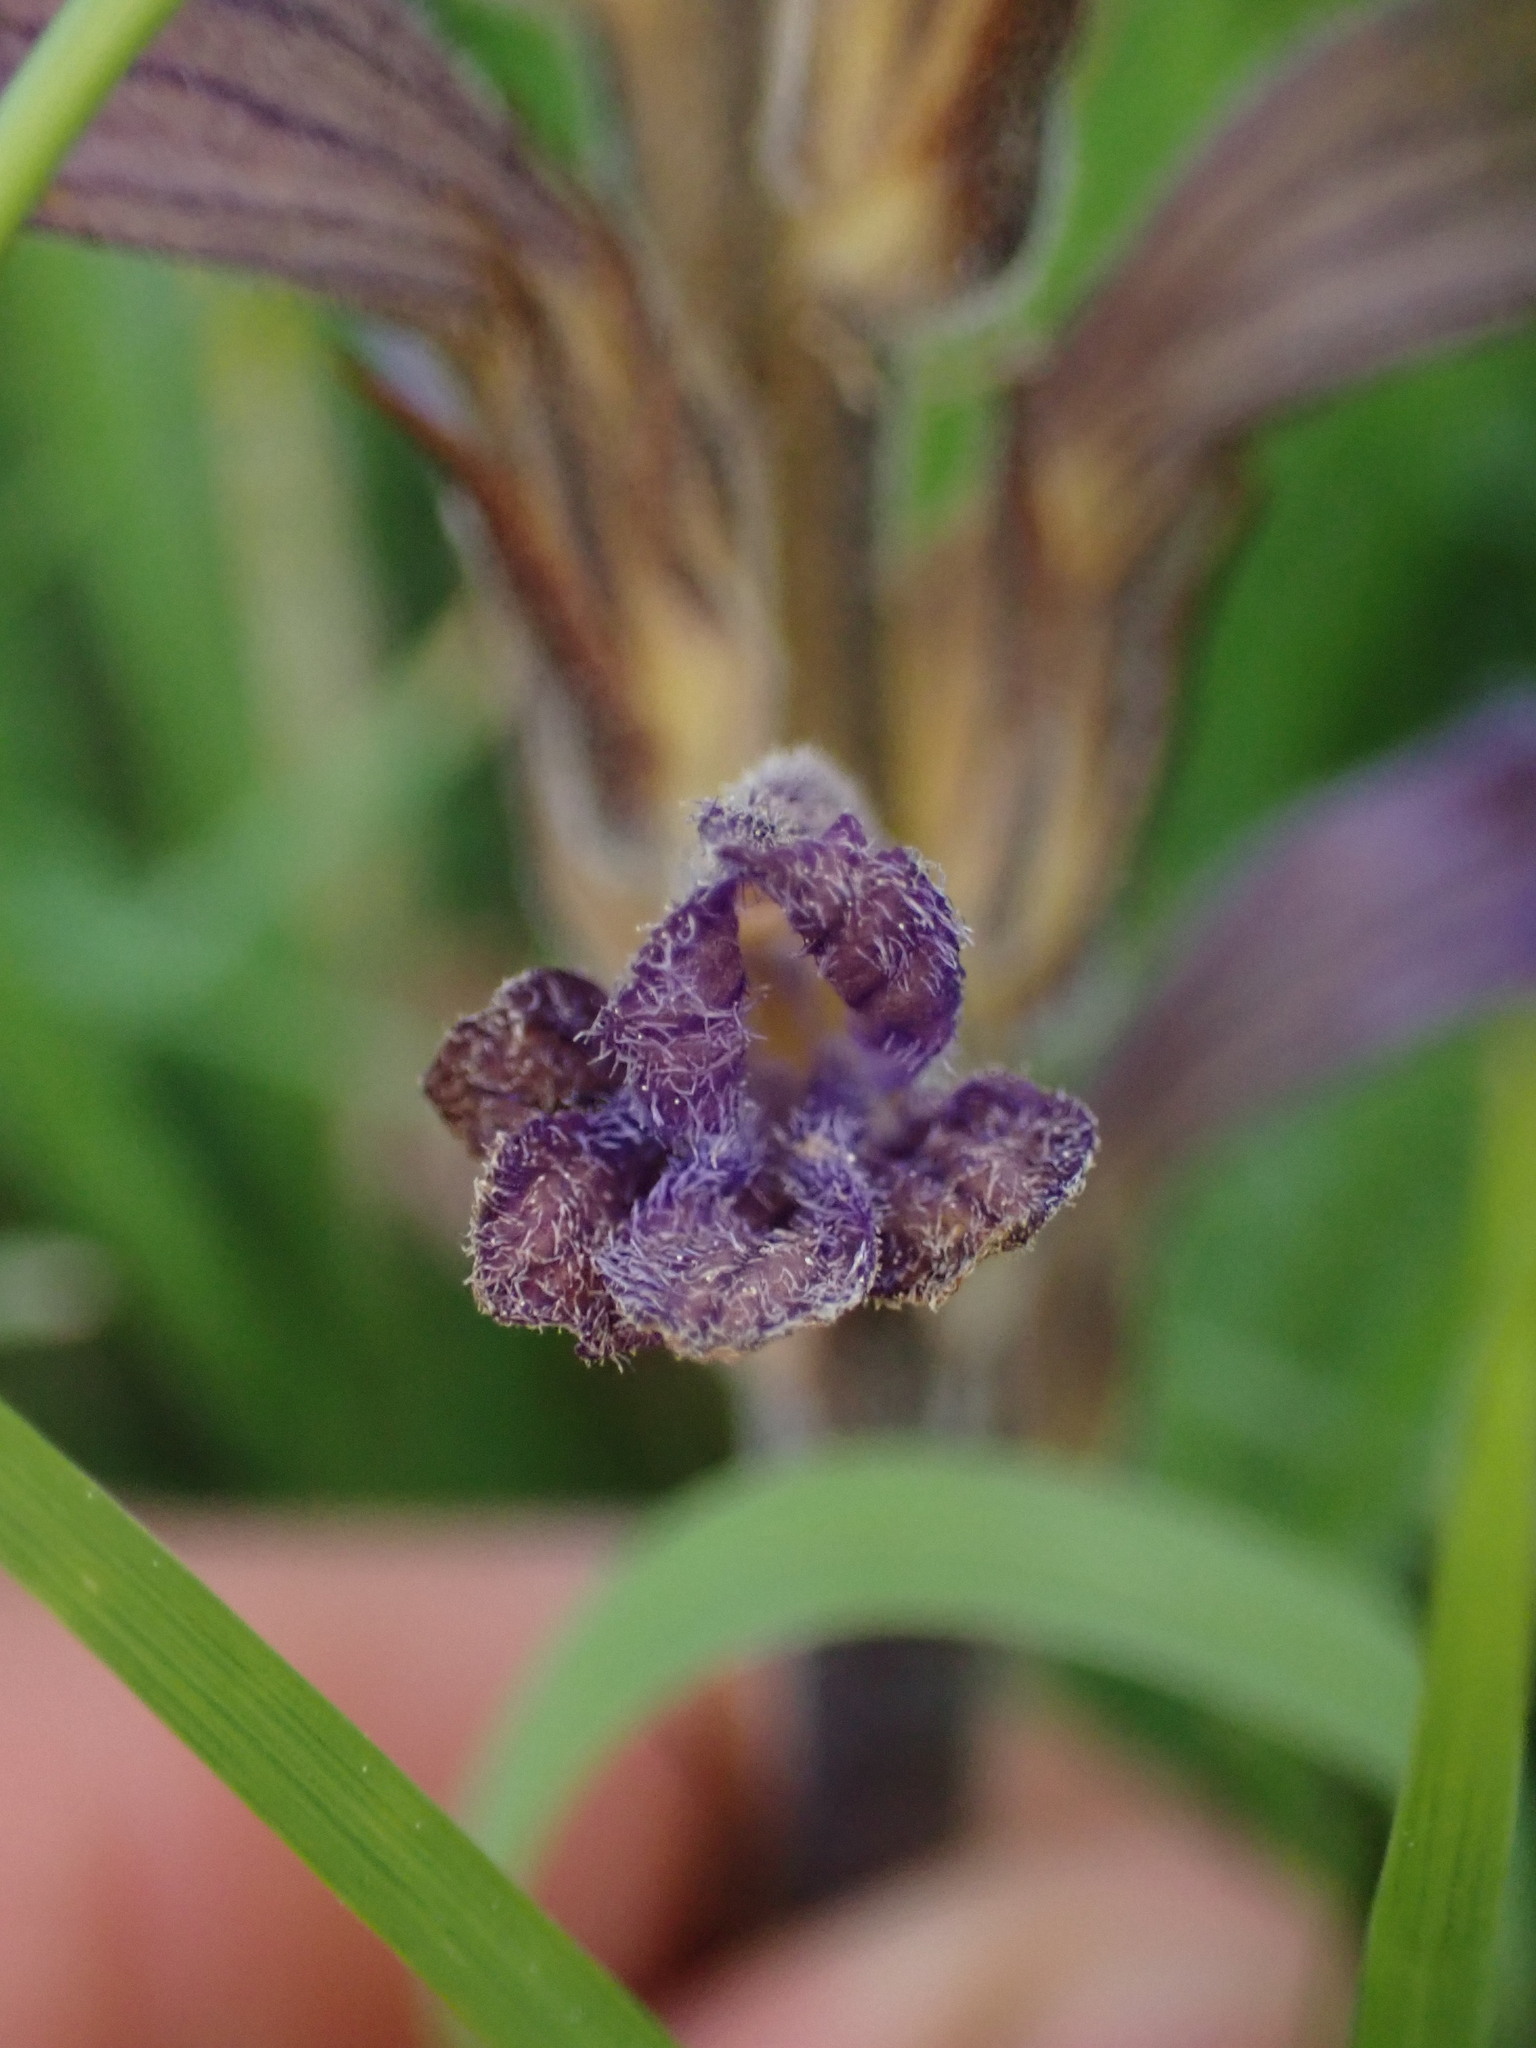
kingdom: Plantae
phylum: Tracheophyta
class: Magnoliopsida
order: Lamiales
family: Orobanchaceae
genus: Phelipanche
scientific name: Phelipanche purpurea
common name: Purple broomrape
